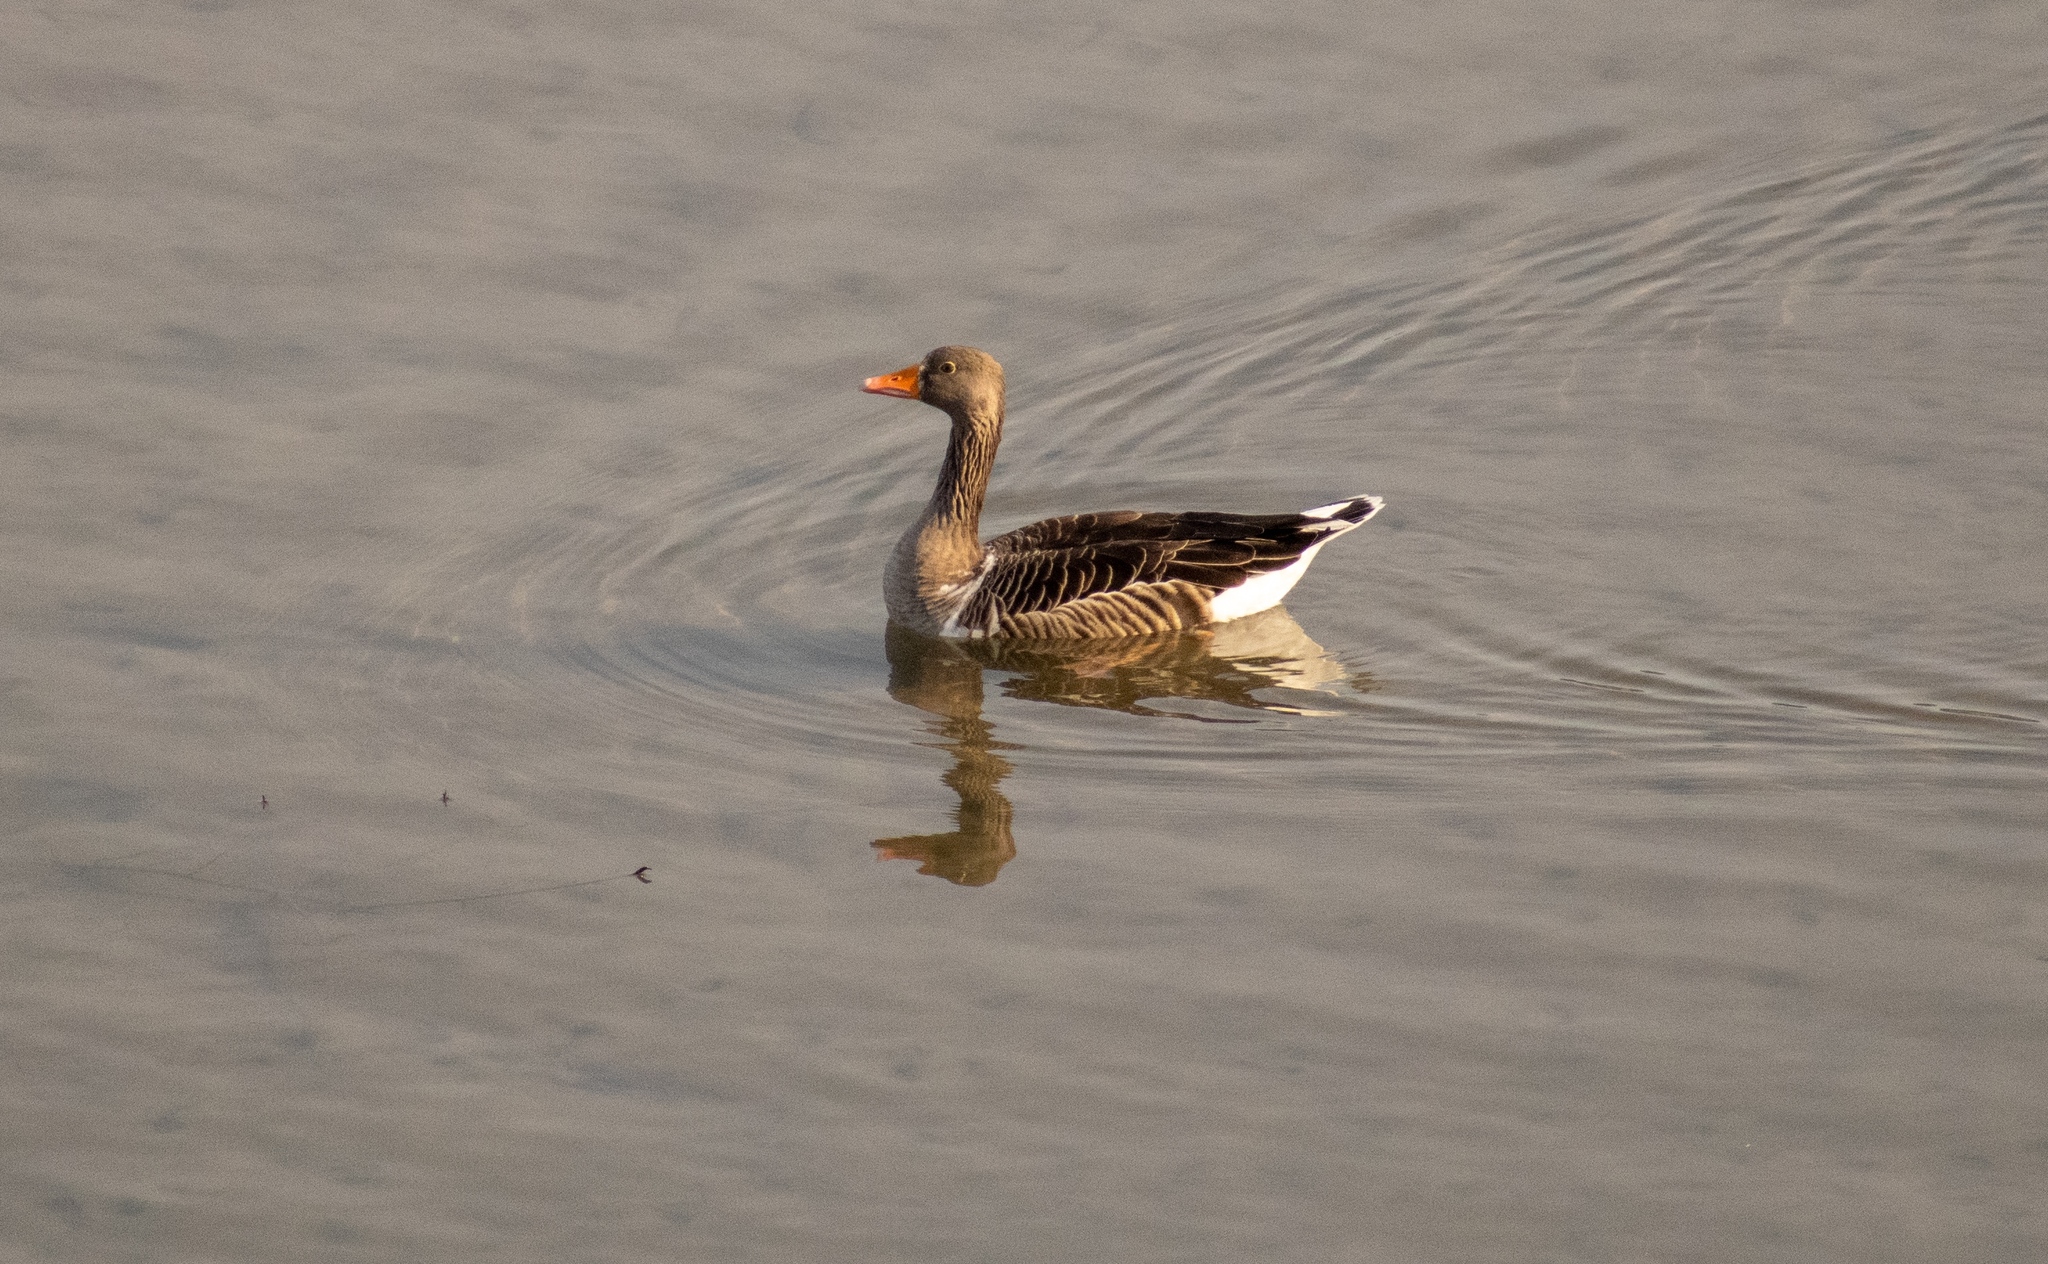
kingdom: Animalia
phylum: Chordata
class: Aves
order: Anseriformes
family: Anatidae
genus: Anser
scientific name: Anser anser
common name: Greylag goose
